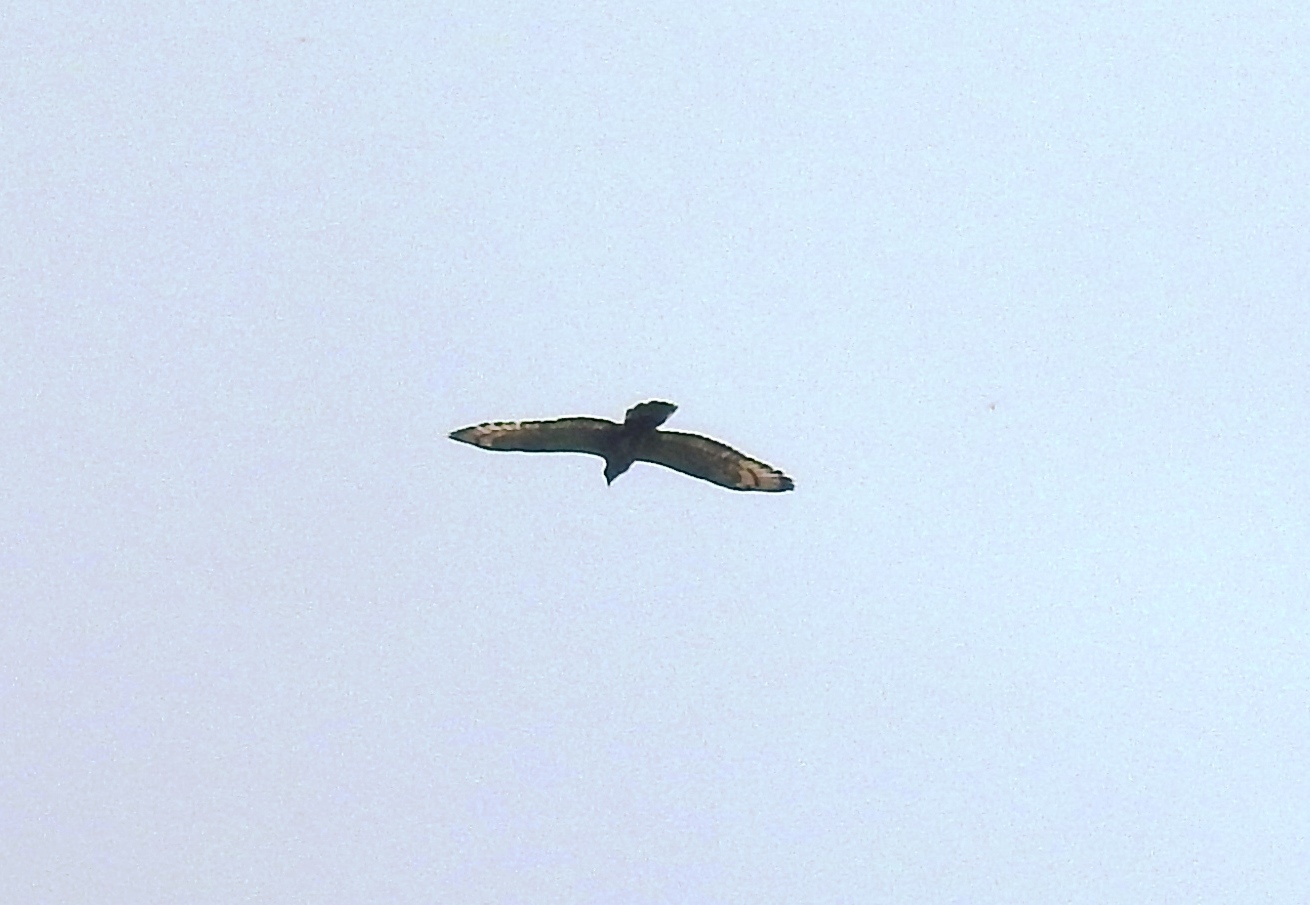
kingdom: Animalia
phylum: Chordata
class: Aves
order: Accipitriformes
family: Accipitridae
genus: Spilornis
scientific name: Spilornis cheela
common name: Crested serpent eagle
